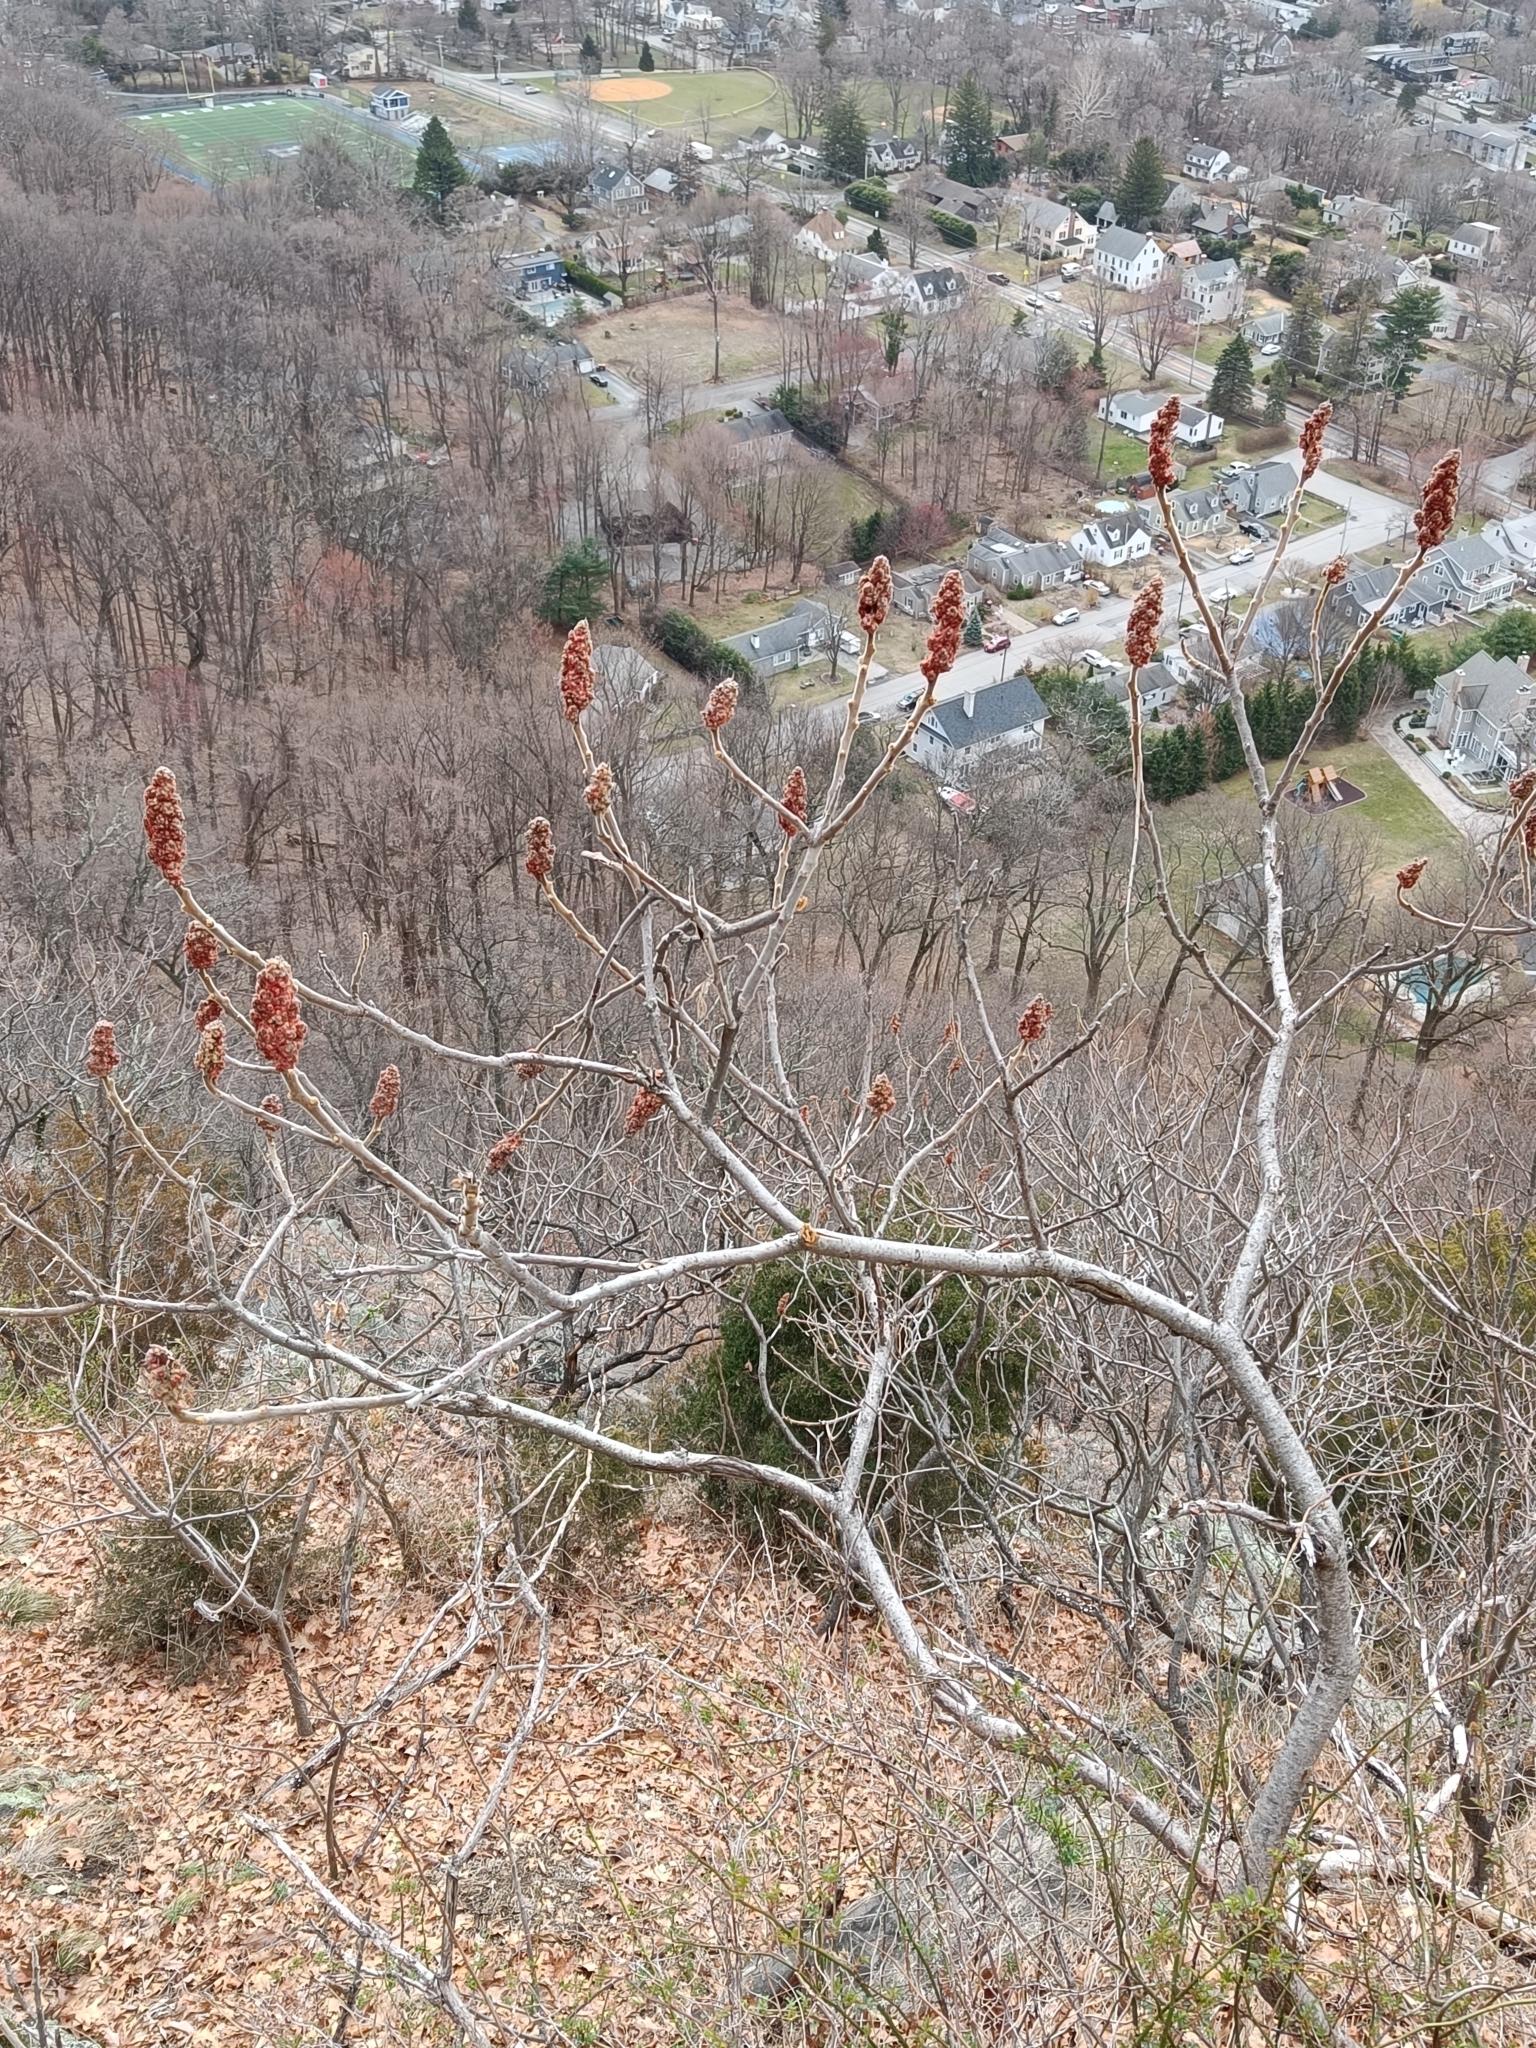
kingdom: Plantae
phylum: Tracheophyta
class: Magnoliopsida
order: Sapindales
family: Anacardiaceae
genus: Rhus
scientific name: Rhus typhina
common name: Staghorn sumac
